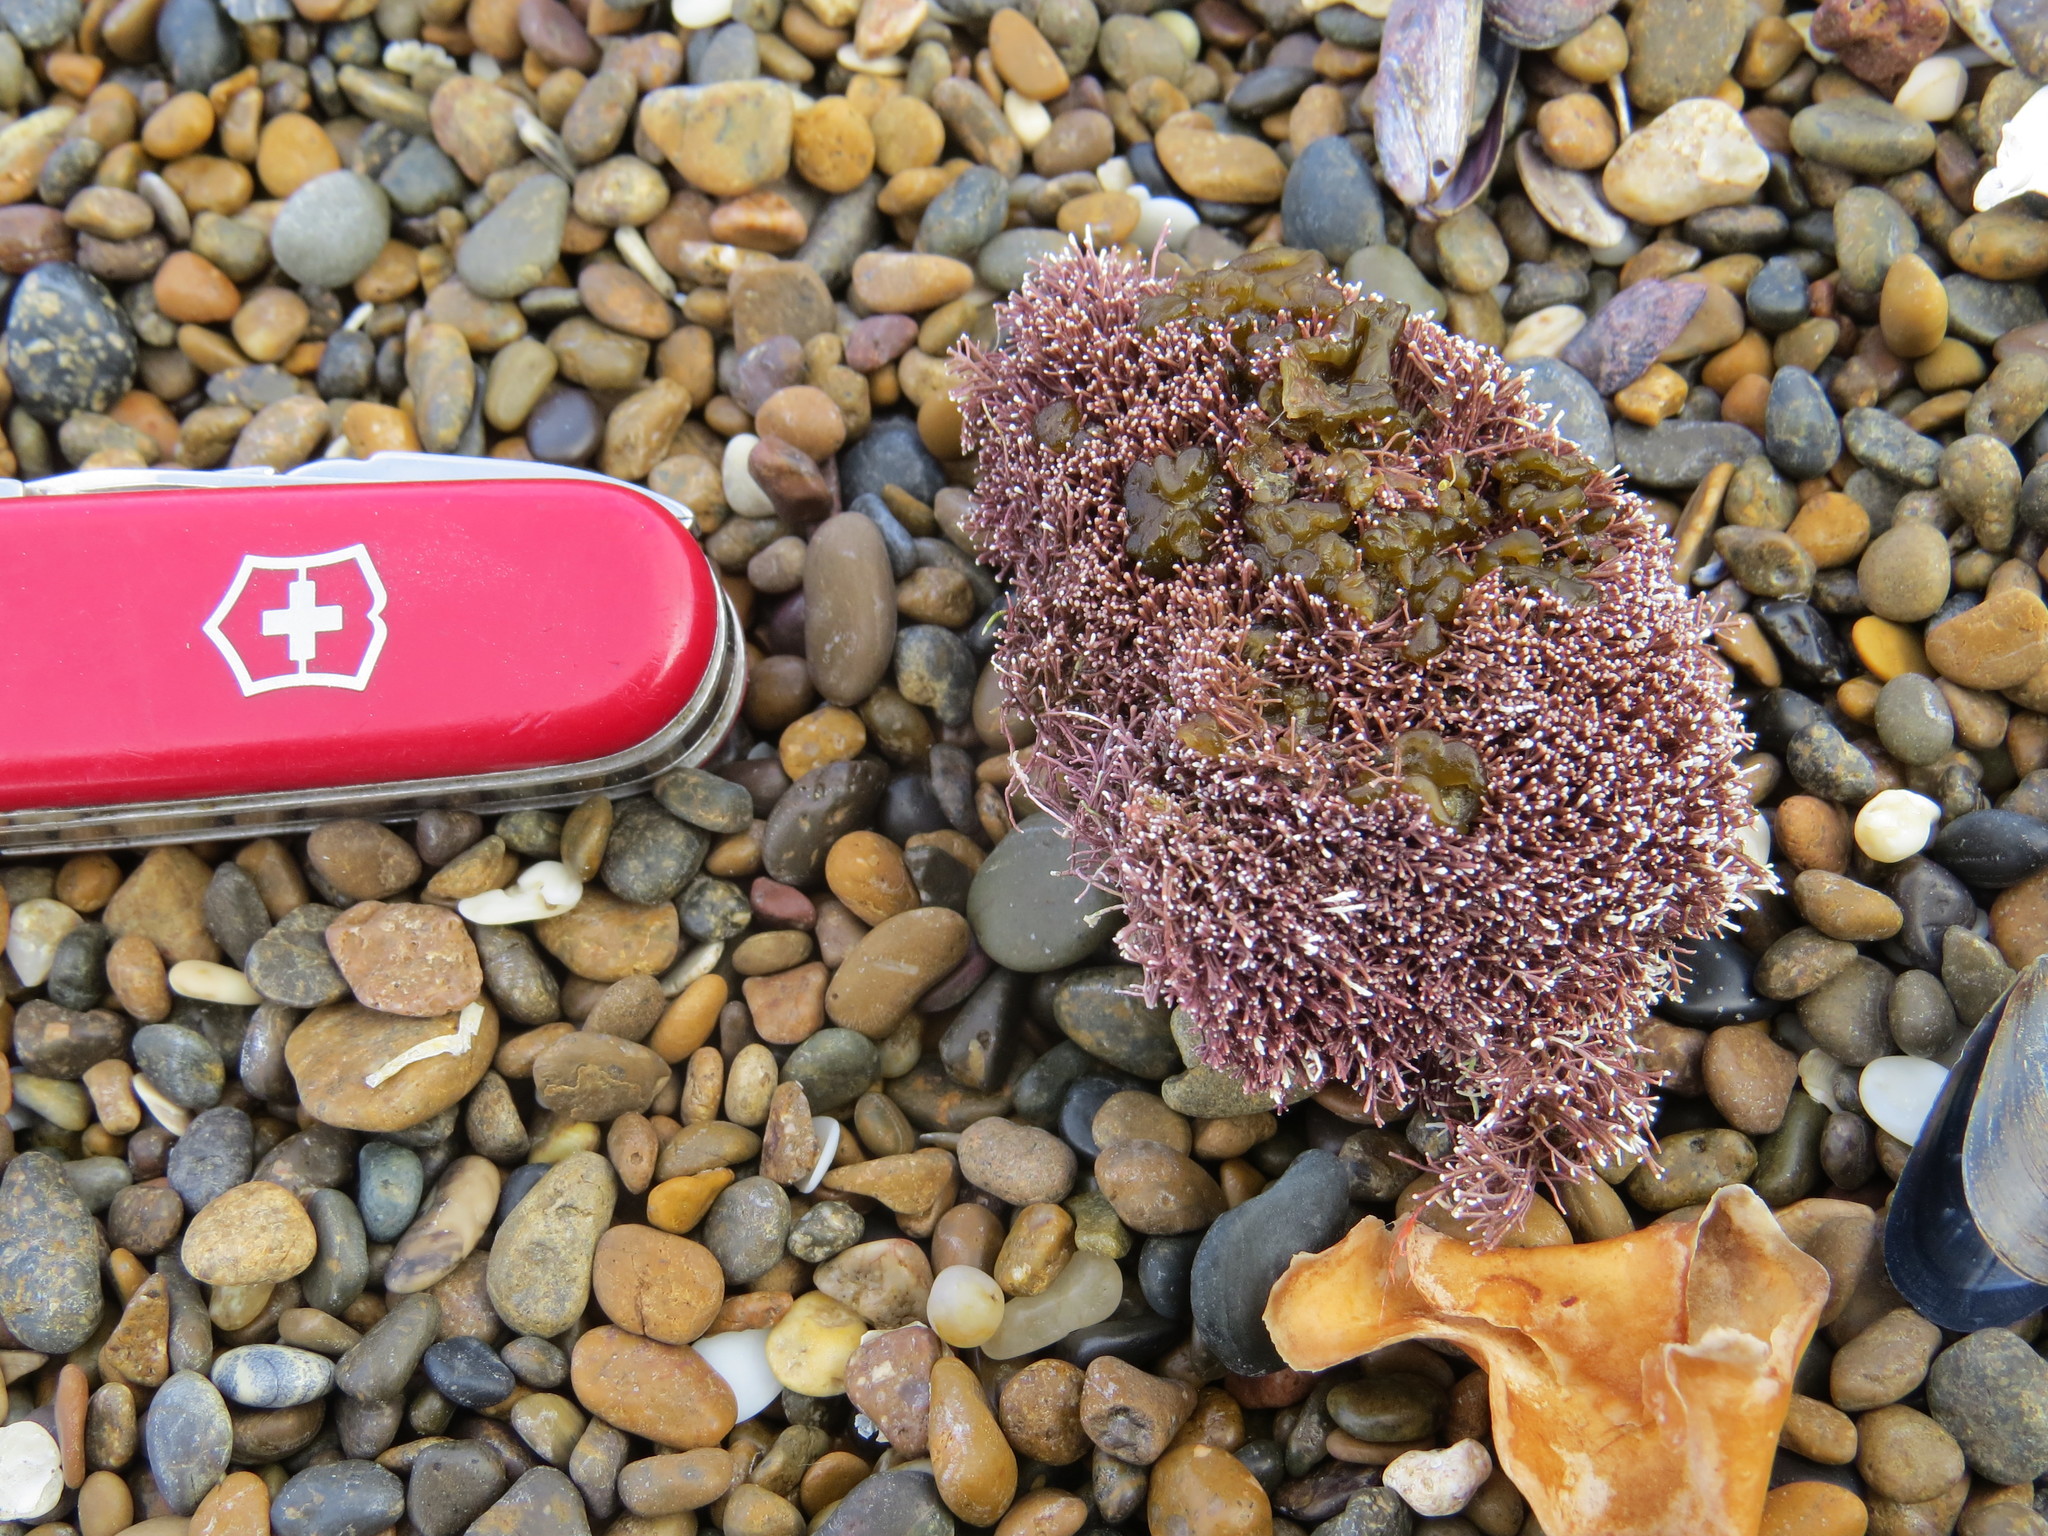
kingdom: Plantae
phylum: Rhodophyta
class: Florideophyceae
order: Corallinales
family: Corallinaceae
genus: Corallina
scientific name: Corallina
